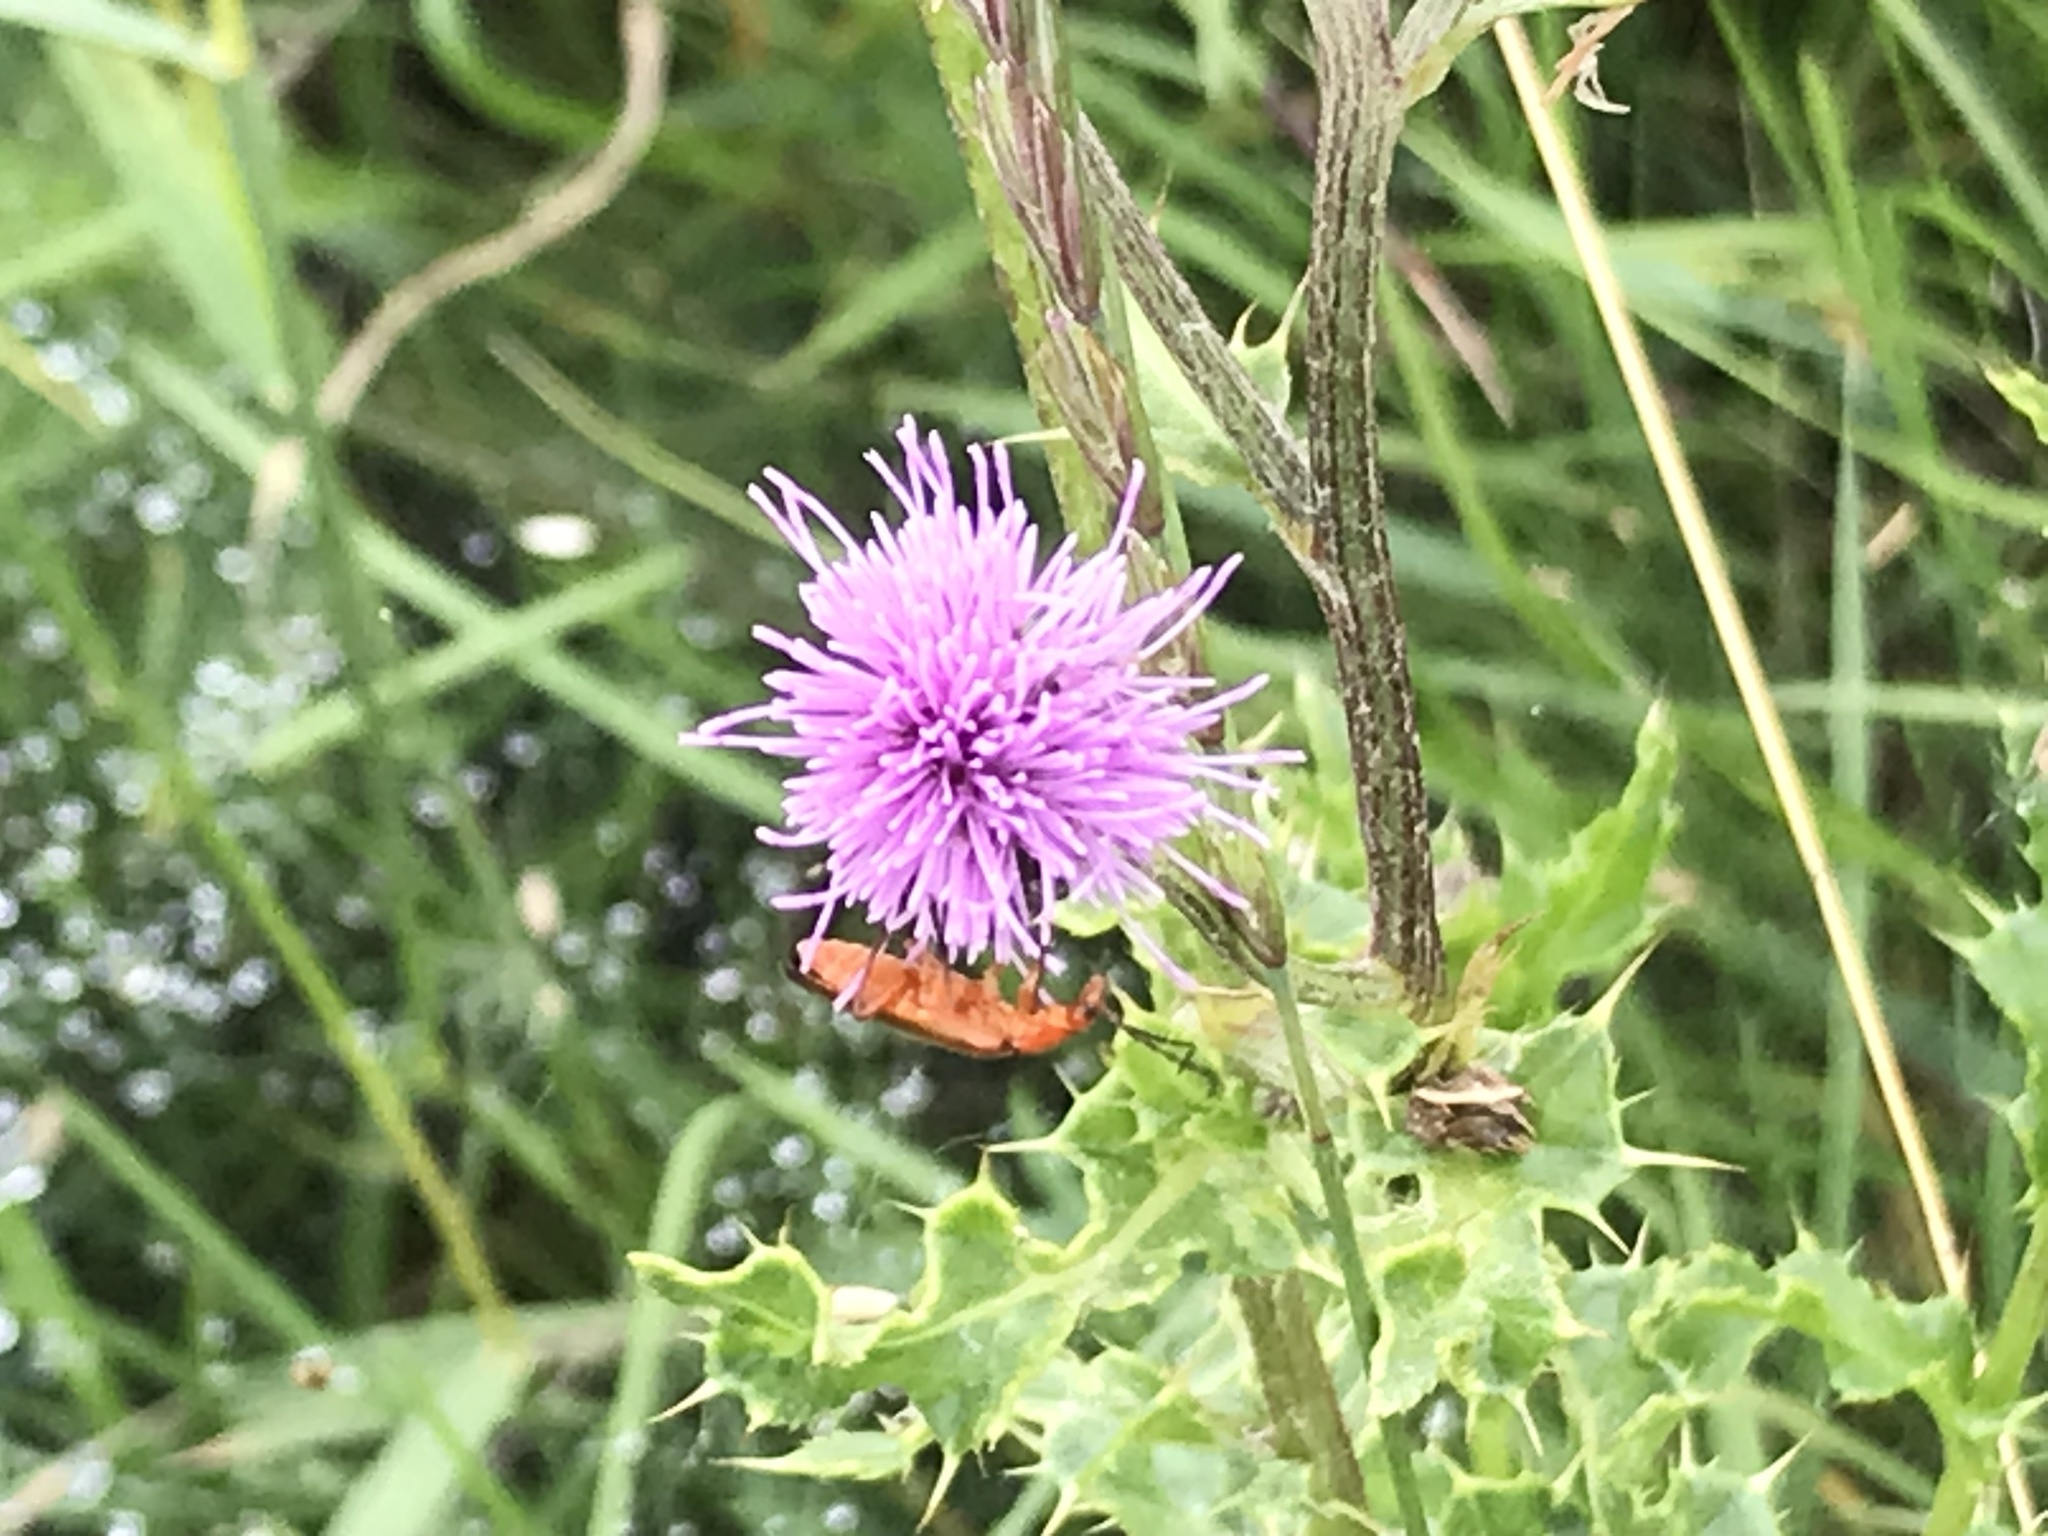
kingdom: Animalia
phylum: Arthropoda
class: Insecta
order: Coleoptera
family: Cantharidae
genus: Rhagonycha
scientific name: Rhagonycha fulva
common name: Common red soldier beetle
